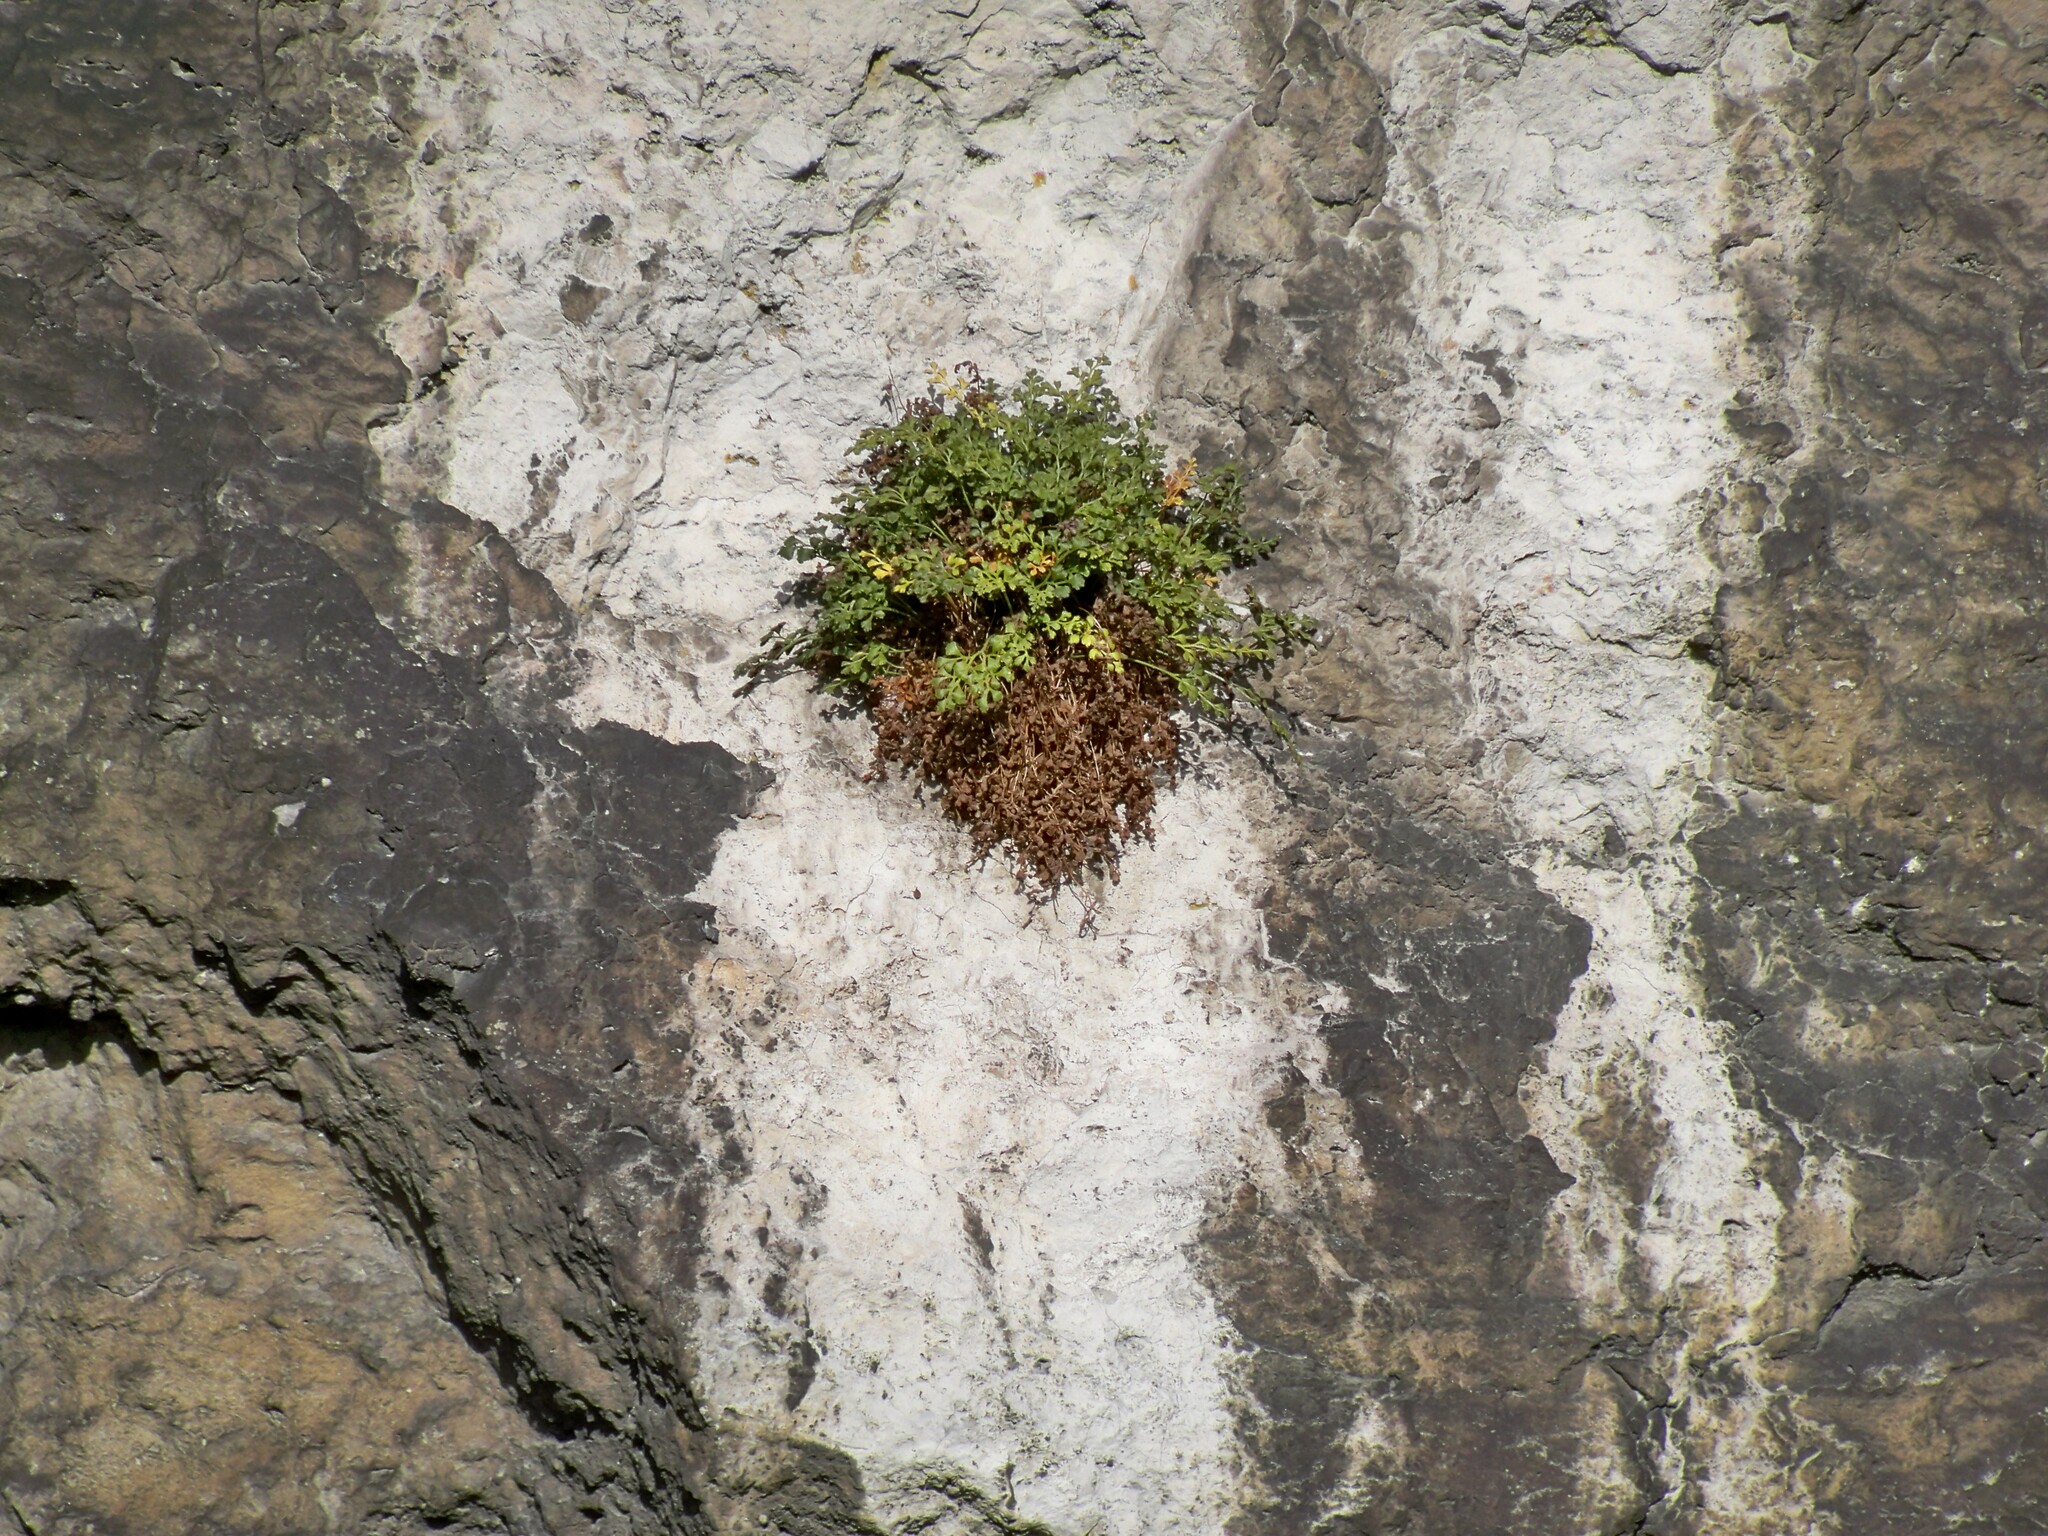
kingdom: Plantae
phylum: Tracheophyta
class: Polypodiopsida
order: Polypodiales
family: Aspleniaceae
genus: Asplenium
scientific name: Asplenium ruta-muraria
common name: Wall-rue
